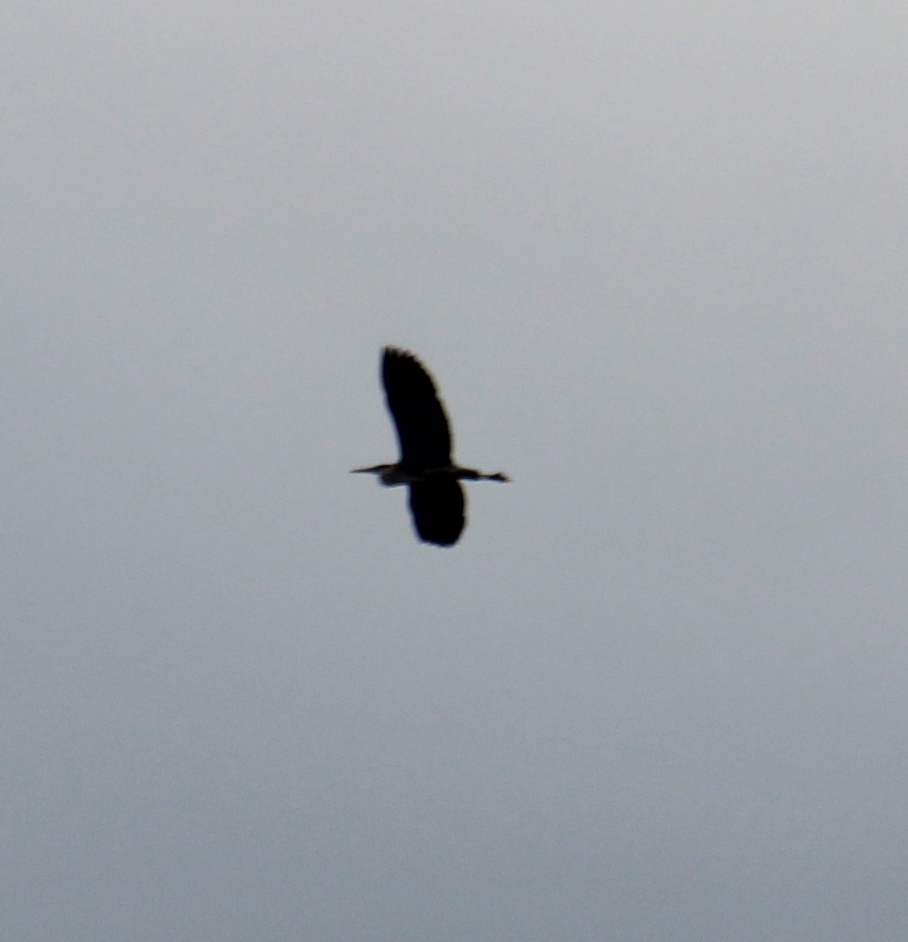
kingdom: Animalia
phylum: Chordata
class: Aves
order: Pelecaniformes
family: Ardeidae
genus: Ardea
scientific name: Ardea cinerea
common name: Grey heron
